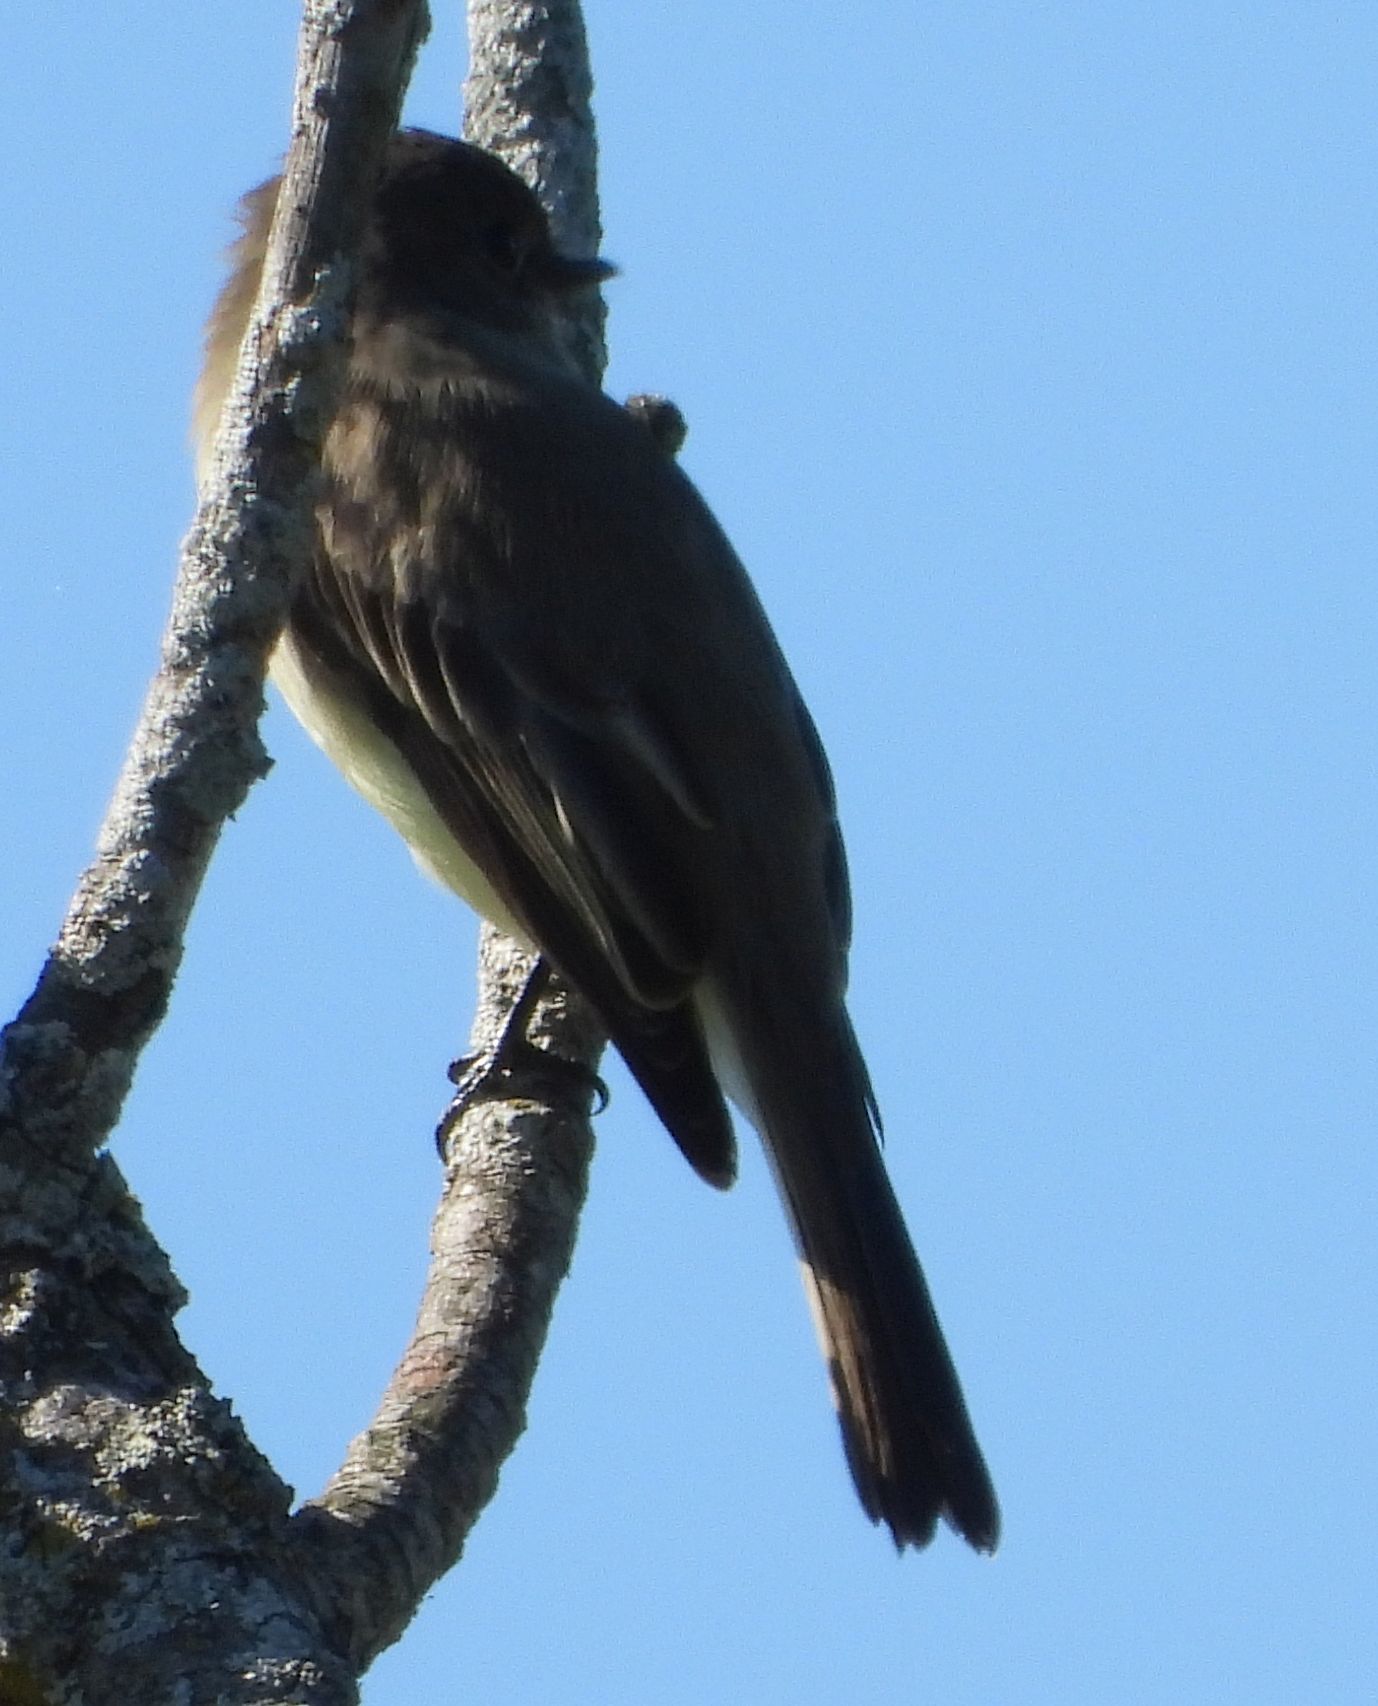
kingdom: Animalia
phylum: Chordata
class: Aves
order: Passeriformes
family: Tyrannidae
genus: Sayornis
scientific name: Sayornis phoebe
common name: Eastern phoebe
